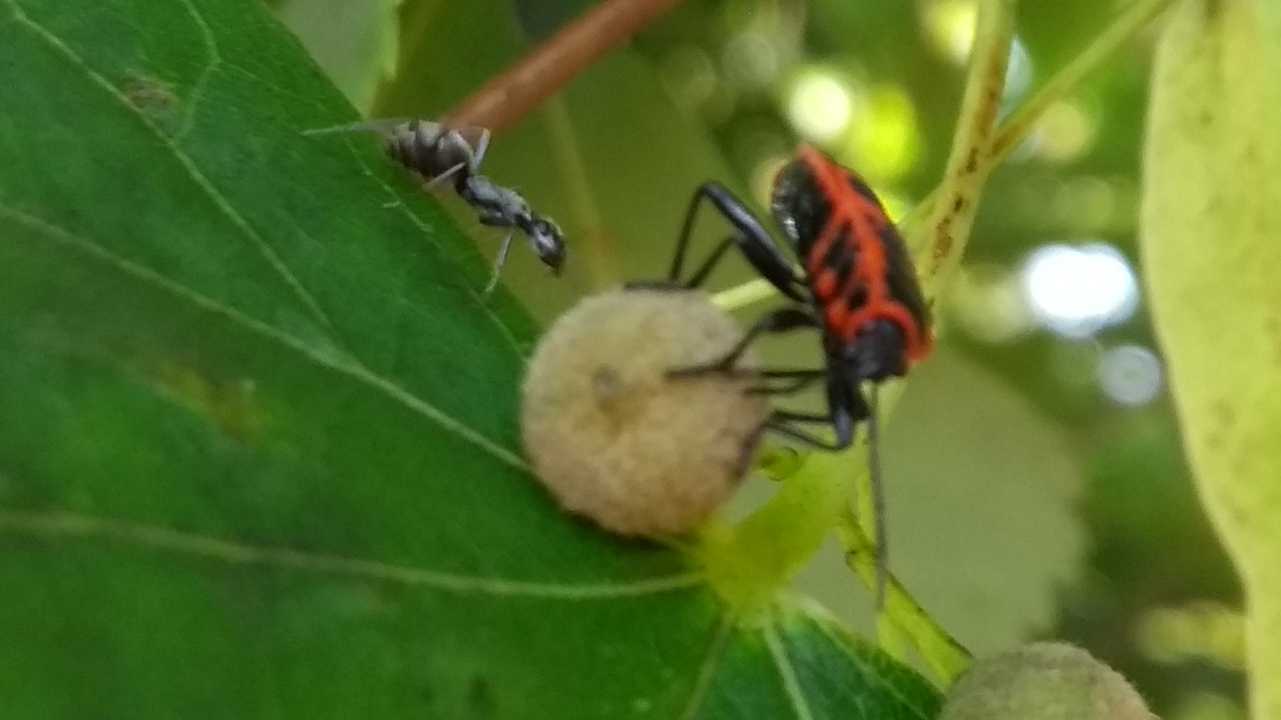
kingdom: Animalia
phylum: Arthropoda
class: Insecta
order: Hemiptera
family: Pyrrhocoridae
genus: Pyrrhocoris
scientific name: Pyrrhocoris apterus
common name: Firebug
